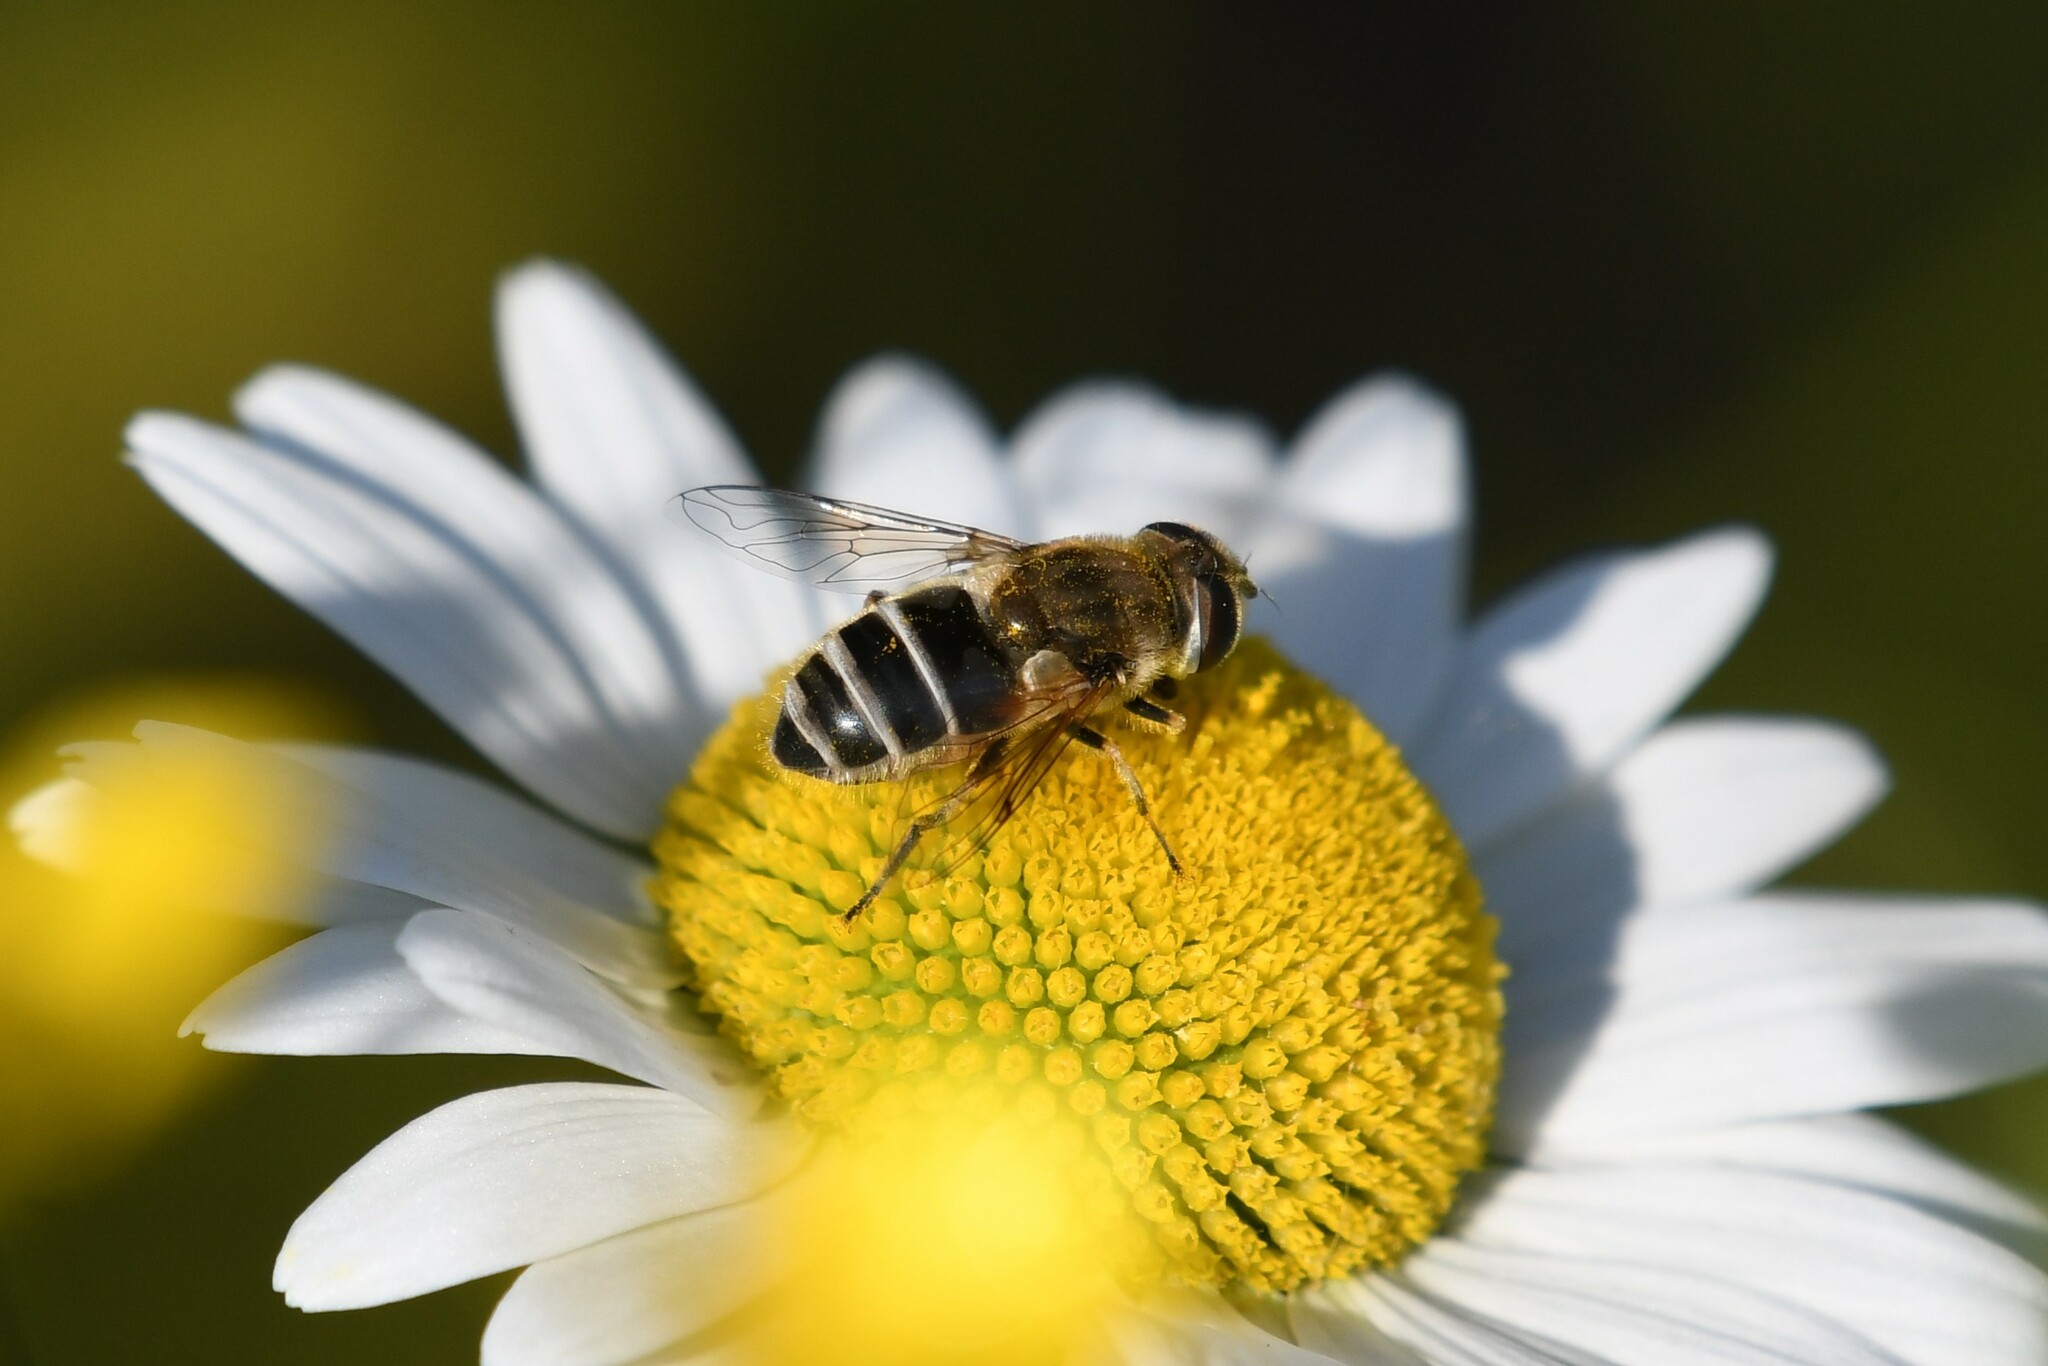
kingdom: Animalia
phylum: Arthropoda
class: Insecta
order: Diptera
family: Syrphidae
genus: Eristalis
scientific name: Eristalis arbustorum
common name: Hover fly
